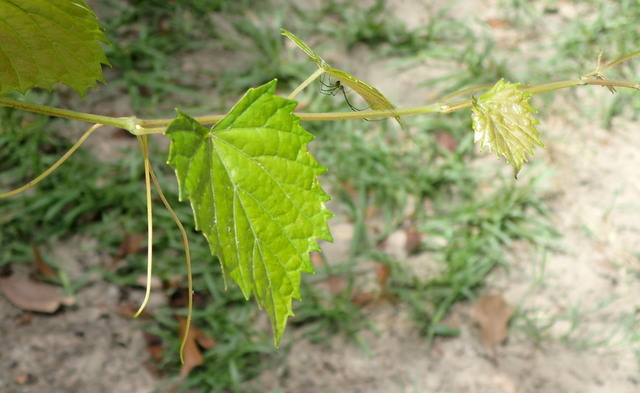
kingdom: Plantae
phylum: Tracheophyta
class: Magnoliopsida
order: Vitales
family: Vitaceae
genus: Vitis
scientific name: Vitis rotundifolia
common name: Muscadine grape
